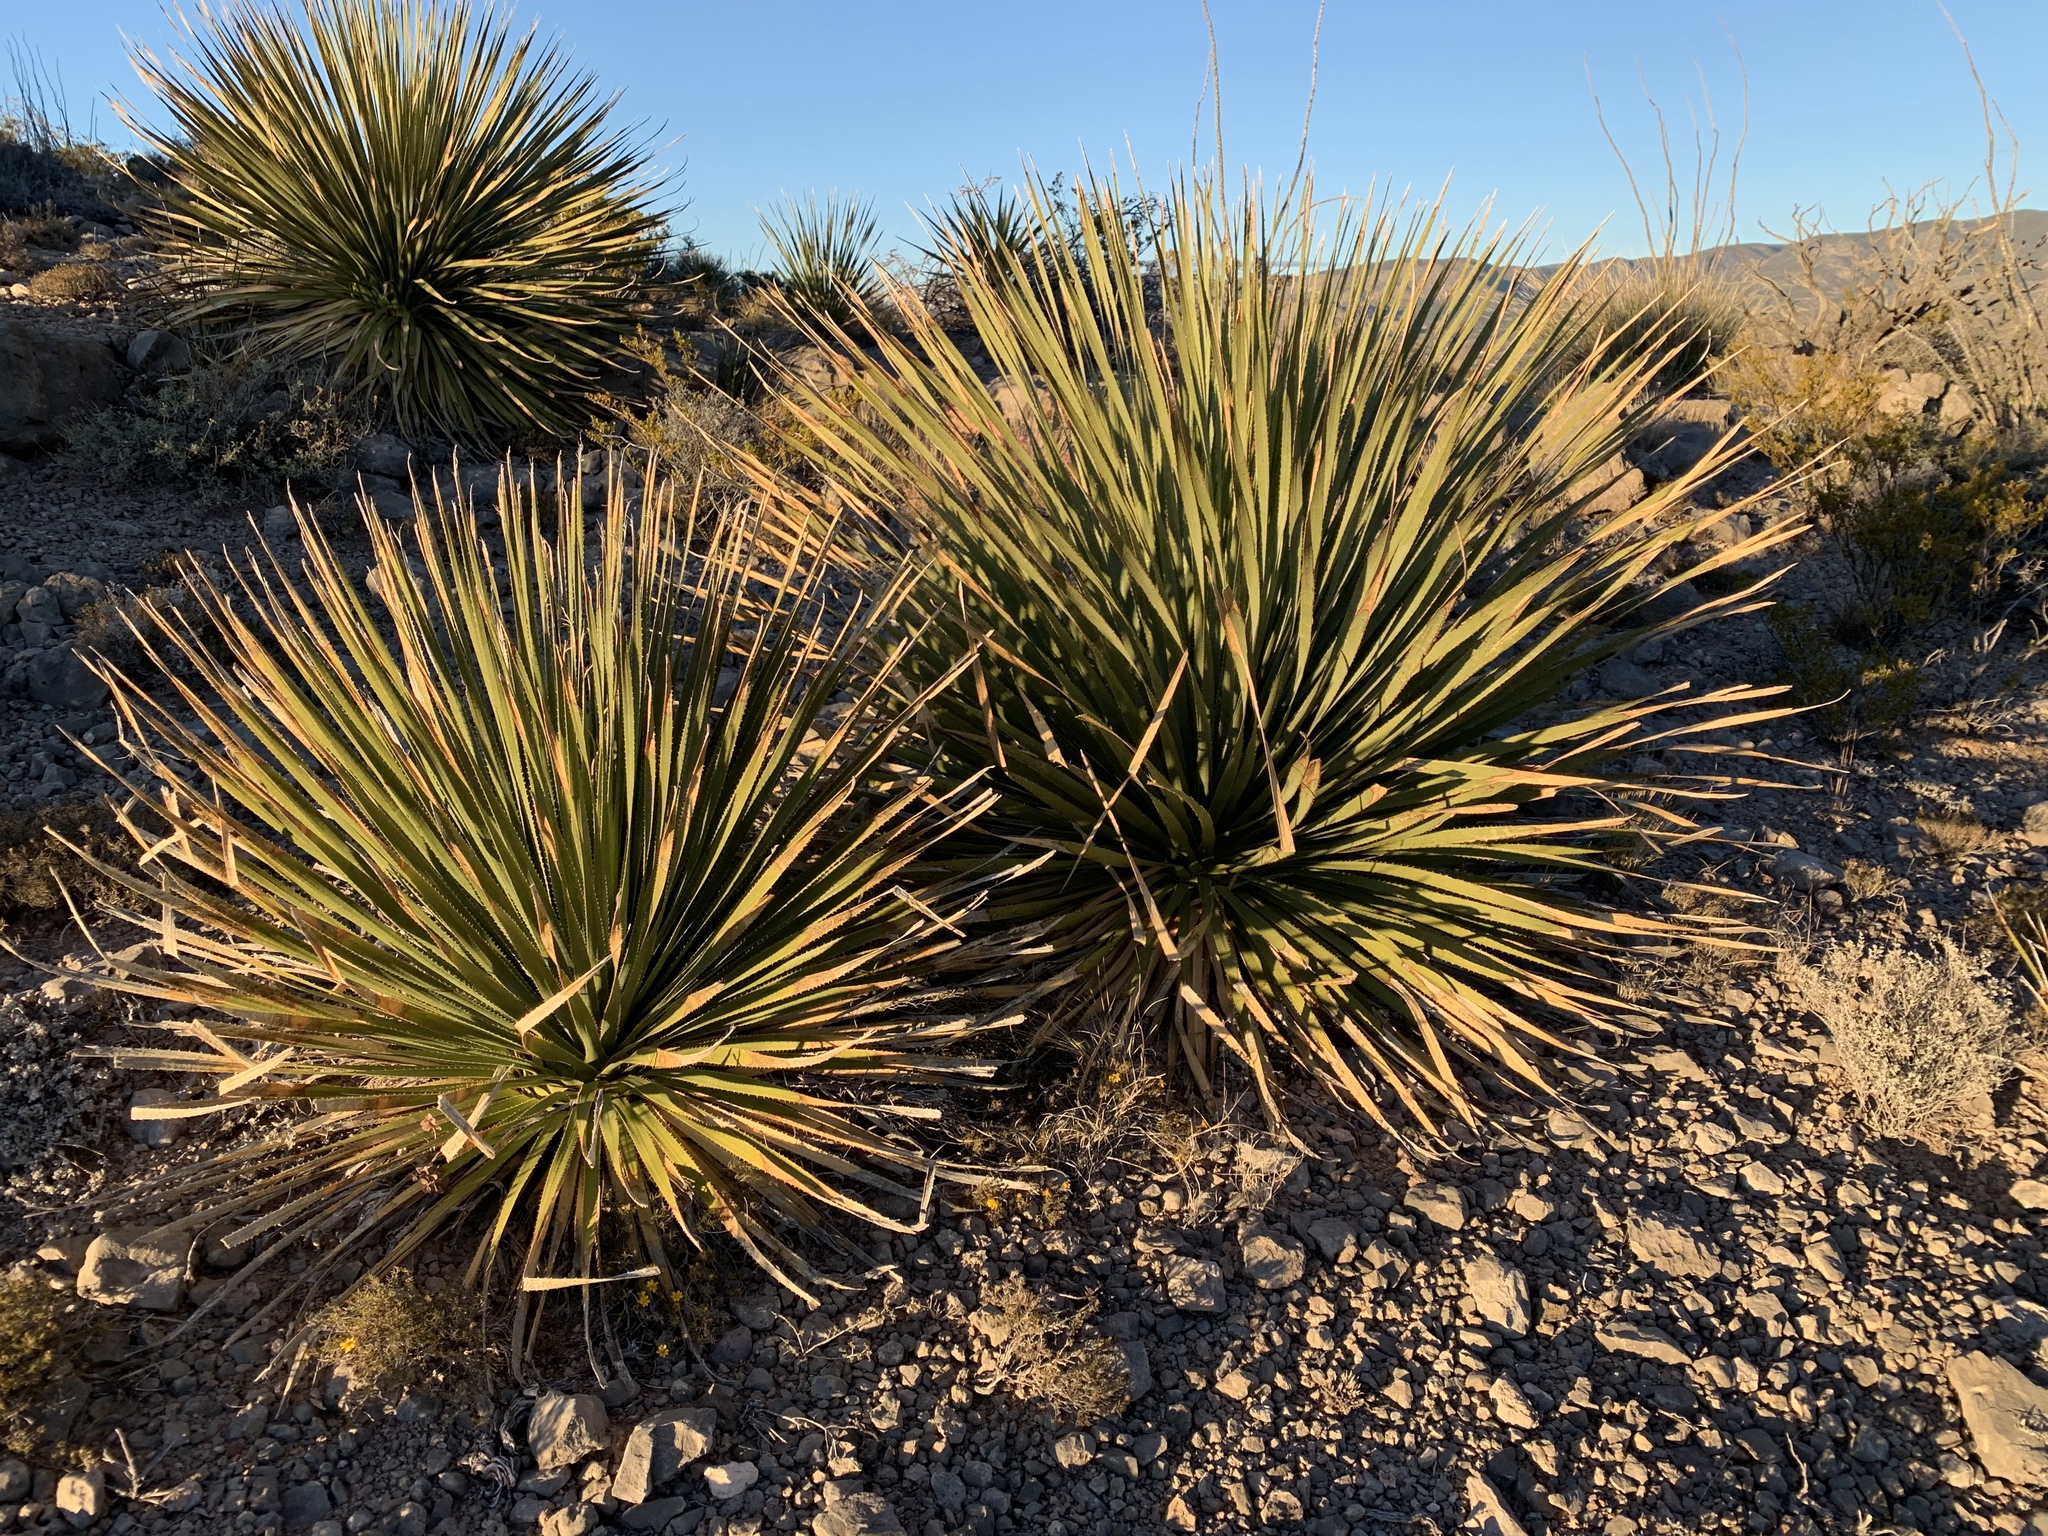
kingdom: Plantae
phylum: Tracheophyta
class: Liliopsida
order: Asparagales
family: Asparagaceae
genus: Dasylirion
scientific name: Dasylirion wheeleri
